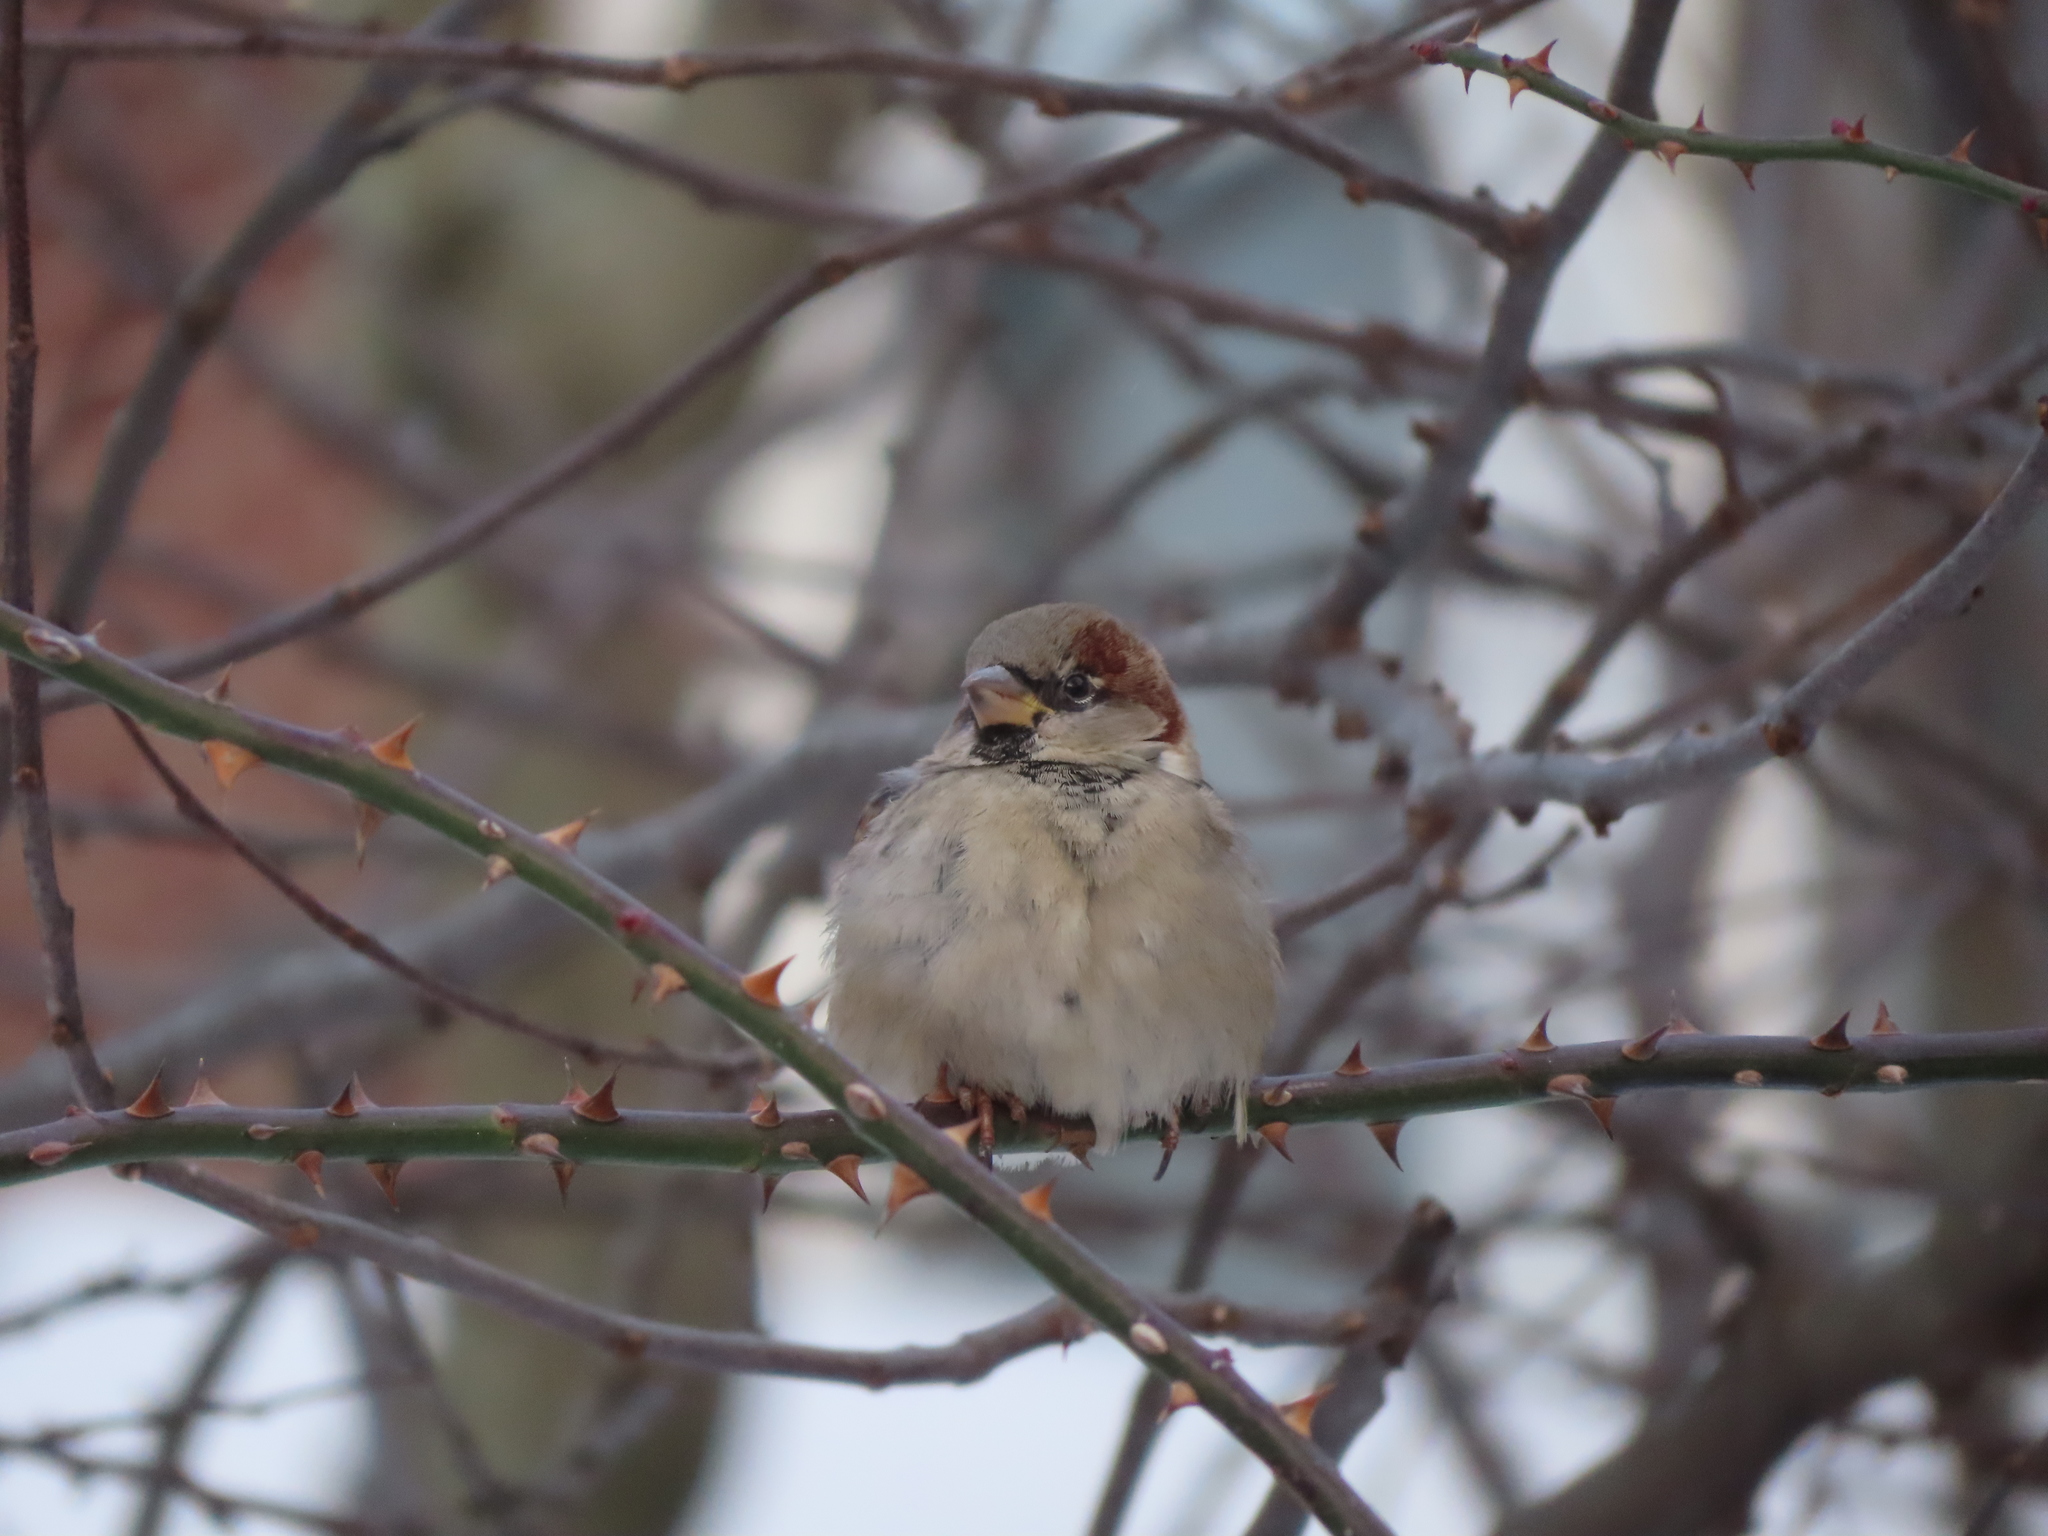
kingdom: Animalia
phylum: Chordata
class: Aves
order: Passeriformes
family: Passeridae
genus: Passer
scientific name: Passer domesticus
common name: House sparrow
